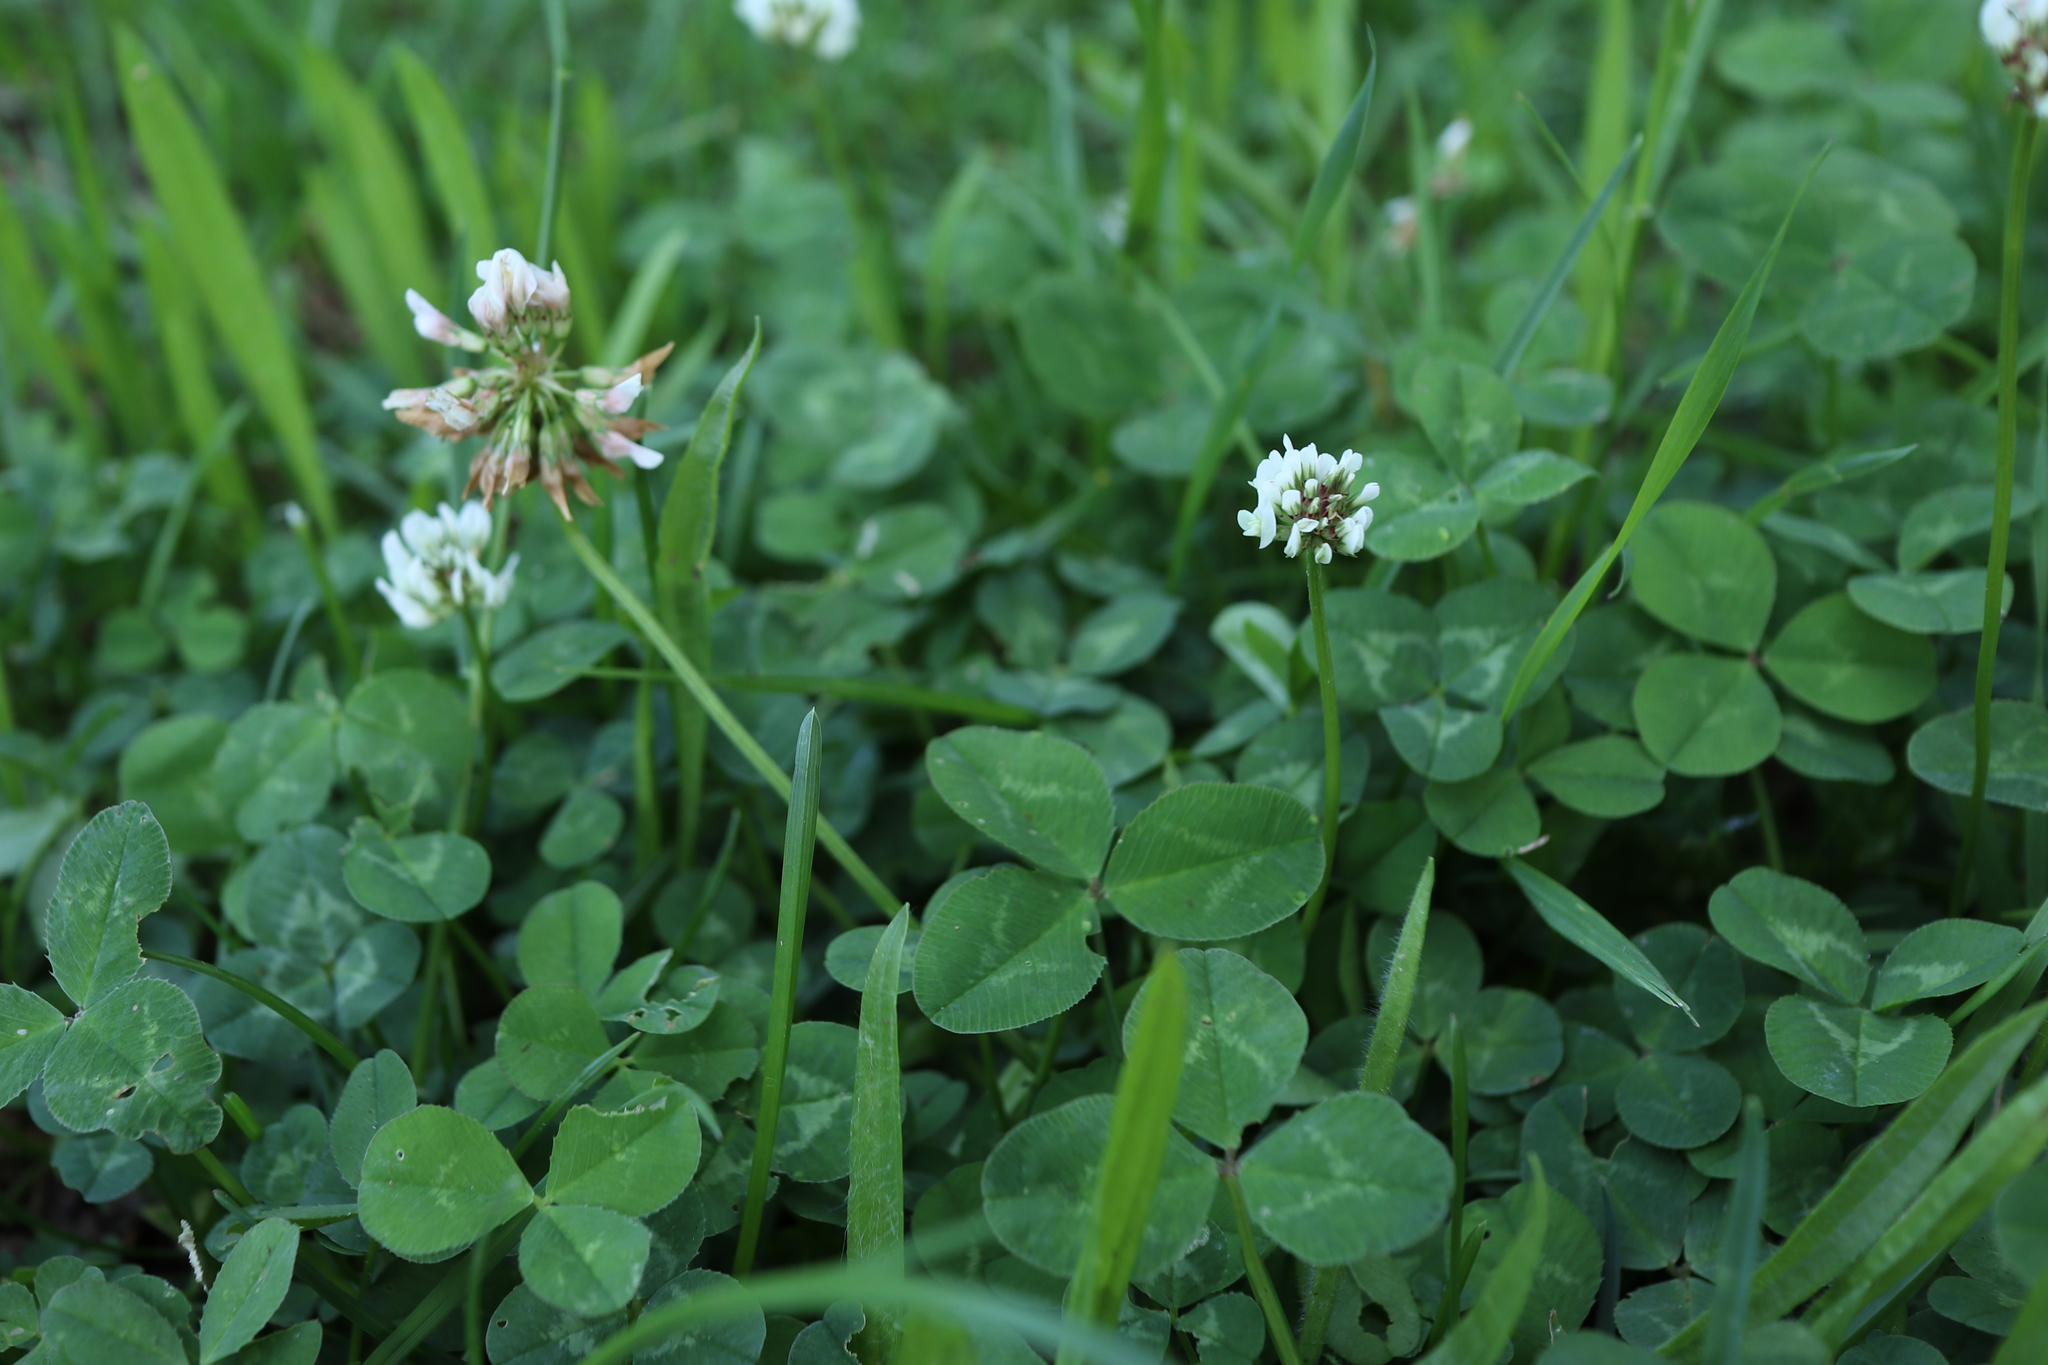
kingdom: Plantae
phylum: Tracheophyta
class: Magnoliopsida
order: Fabales
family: Fabaceae
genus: Trifolium
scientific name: Trifolium repens
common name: White clover
